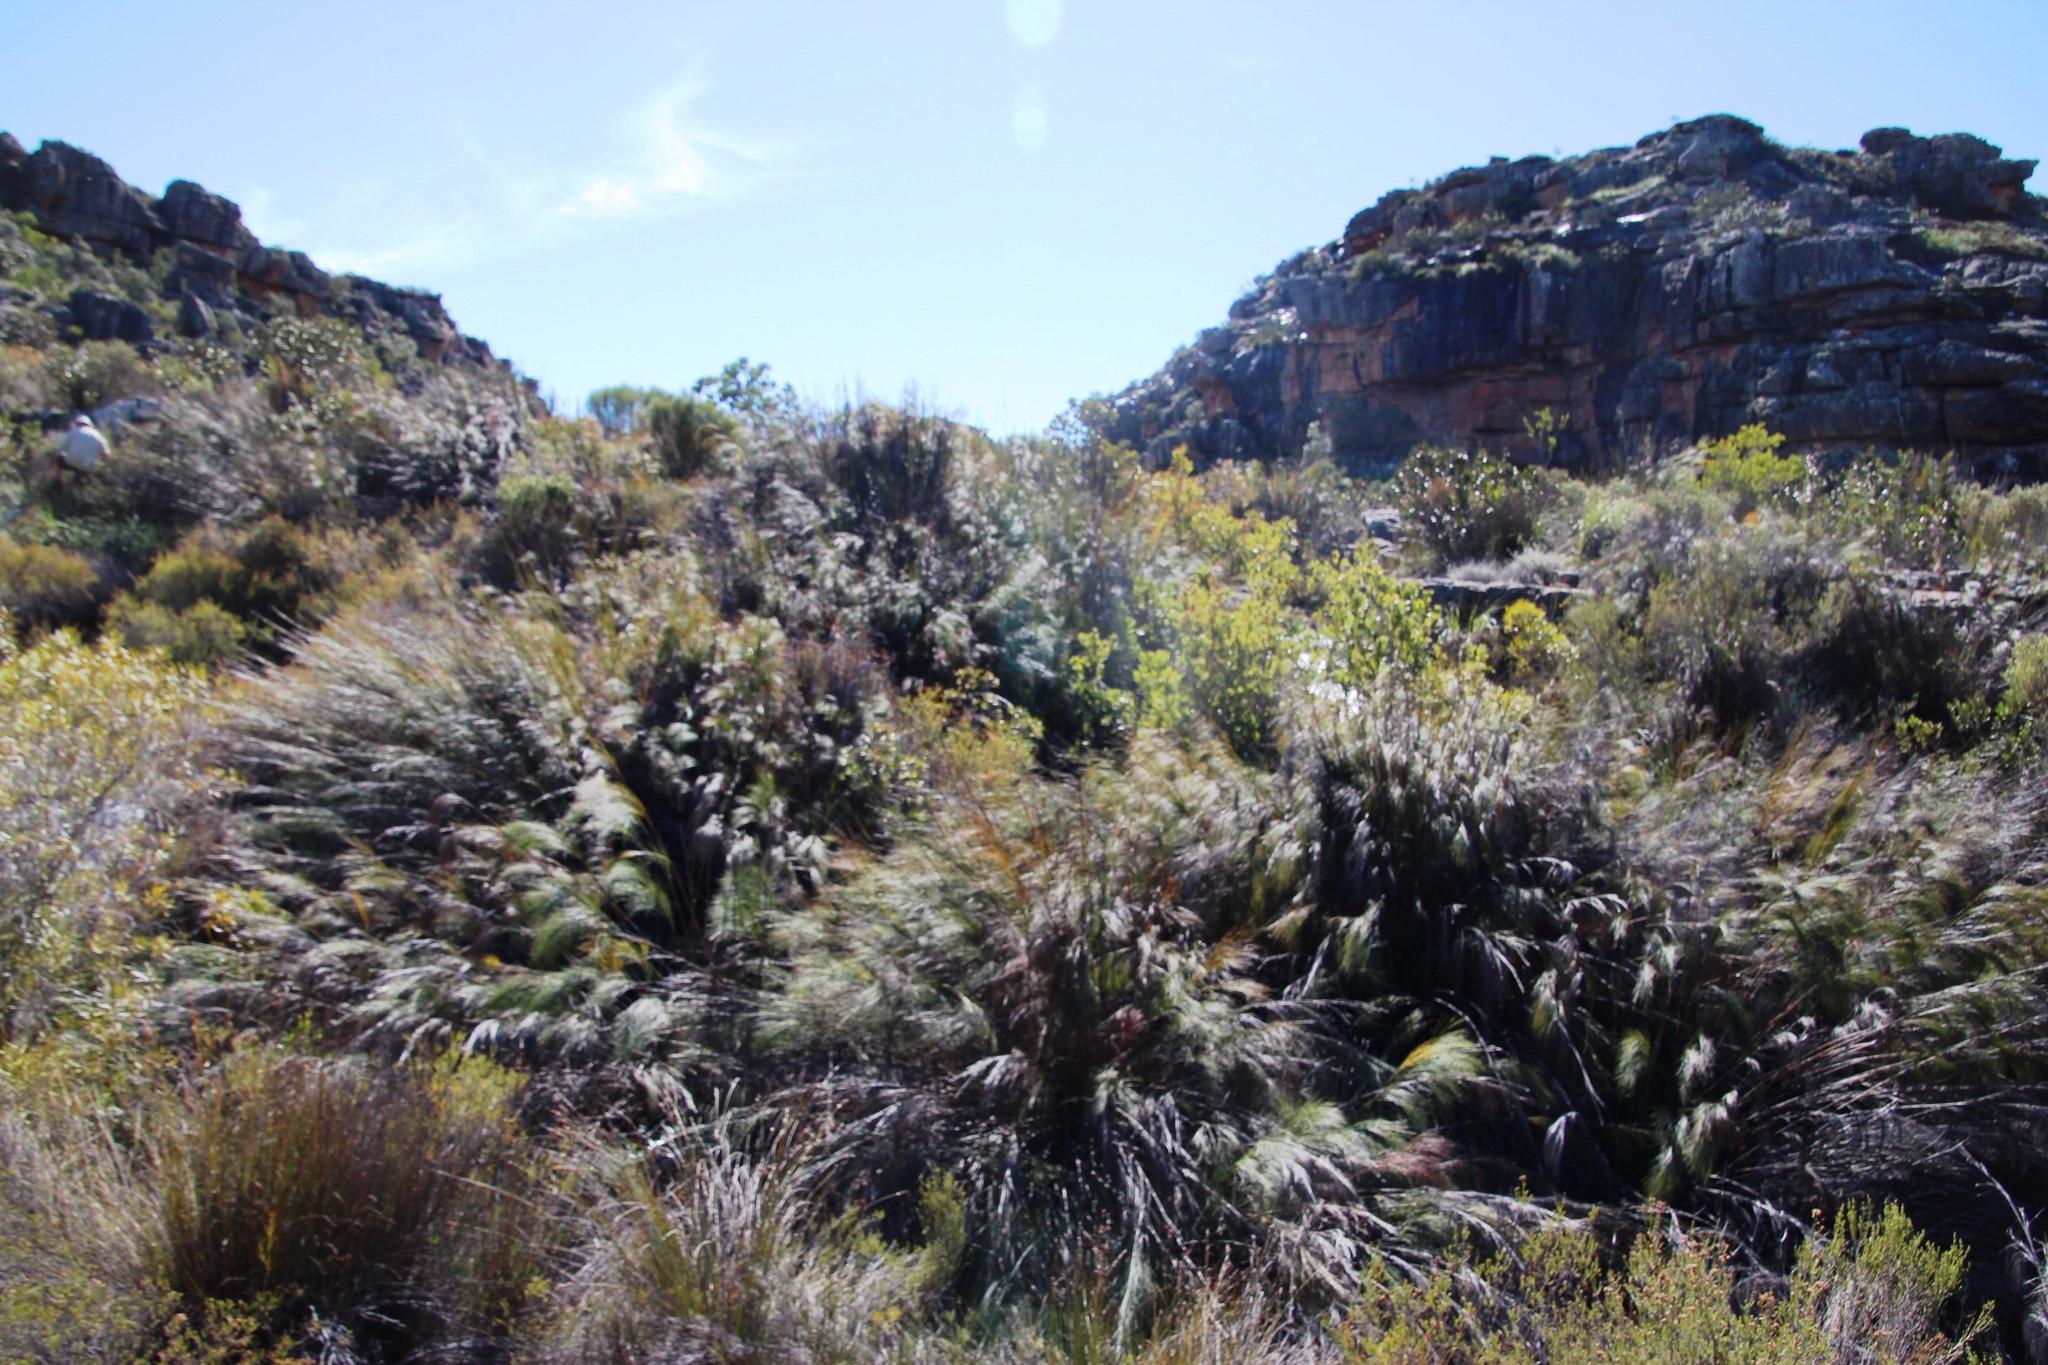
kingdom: Plantae
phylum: Tracheophyta
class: Liliopsida
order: Poales
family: Restionaceae
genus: Cannomois
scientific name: Cannomois robusta
